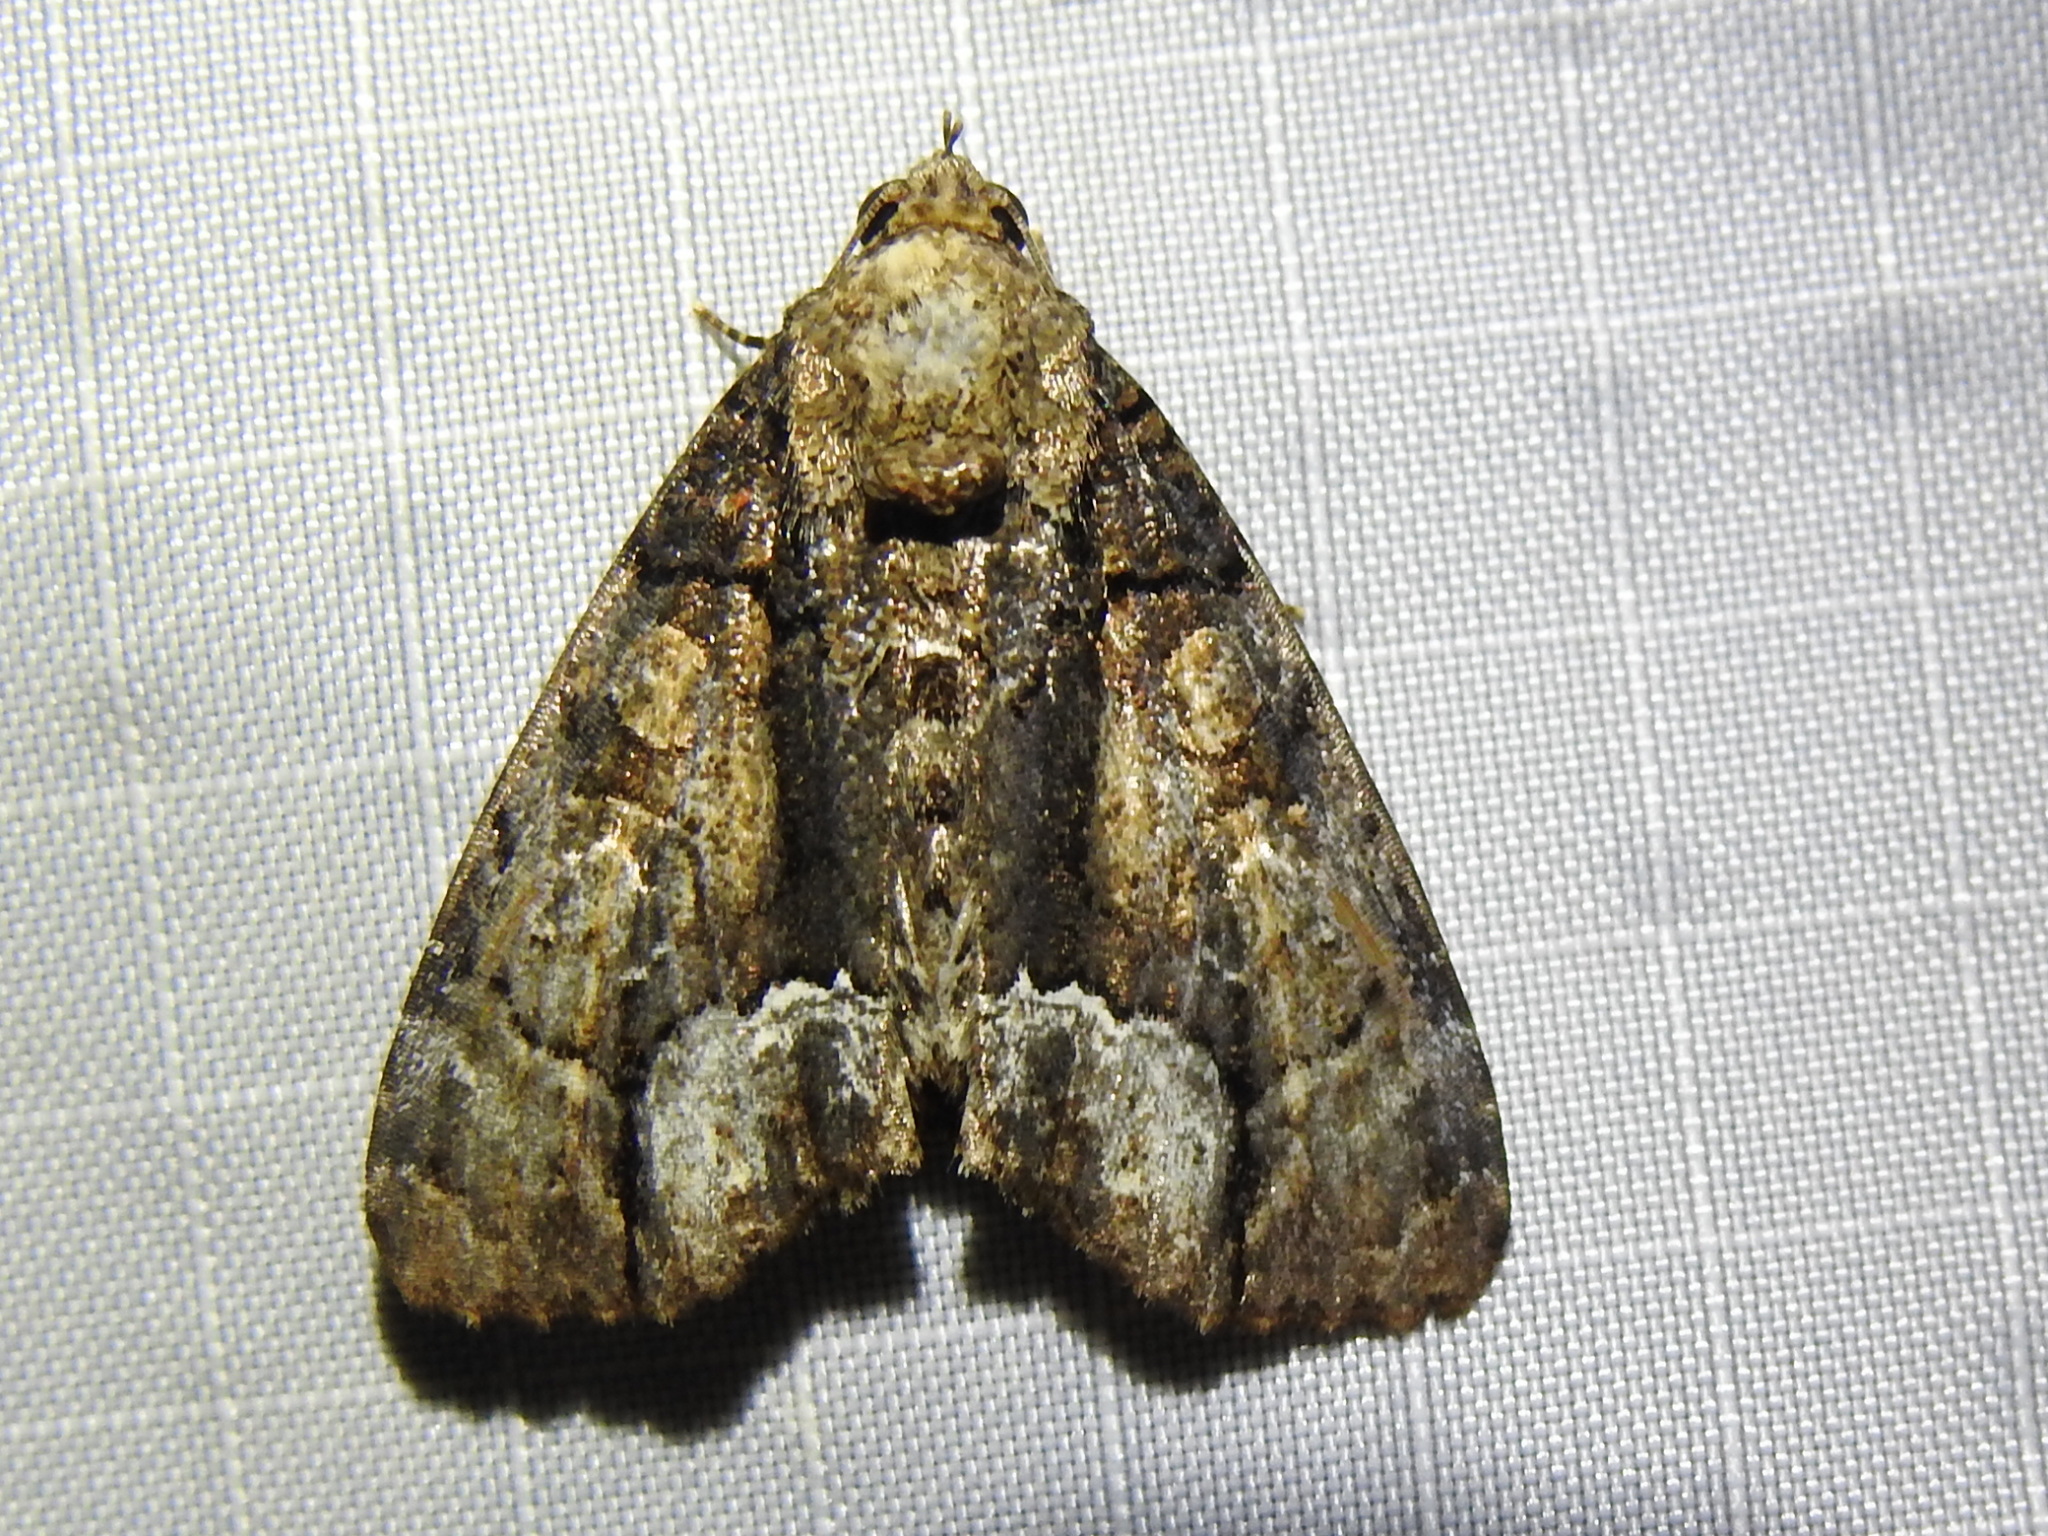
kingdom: Animalia
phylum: Arthropoda
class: Insecta
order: Lepidoptera
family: Noctuidae
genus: Cropia
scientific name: Cropia connecta
